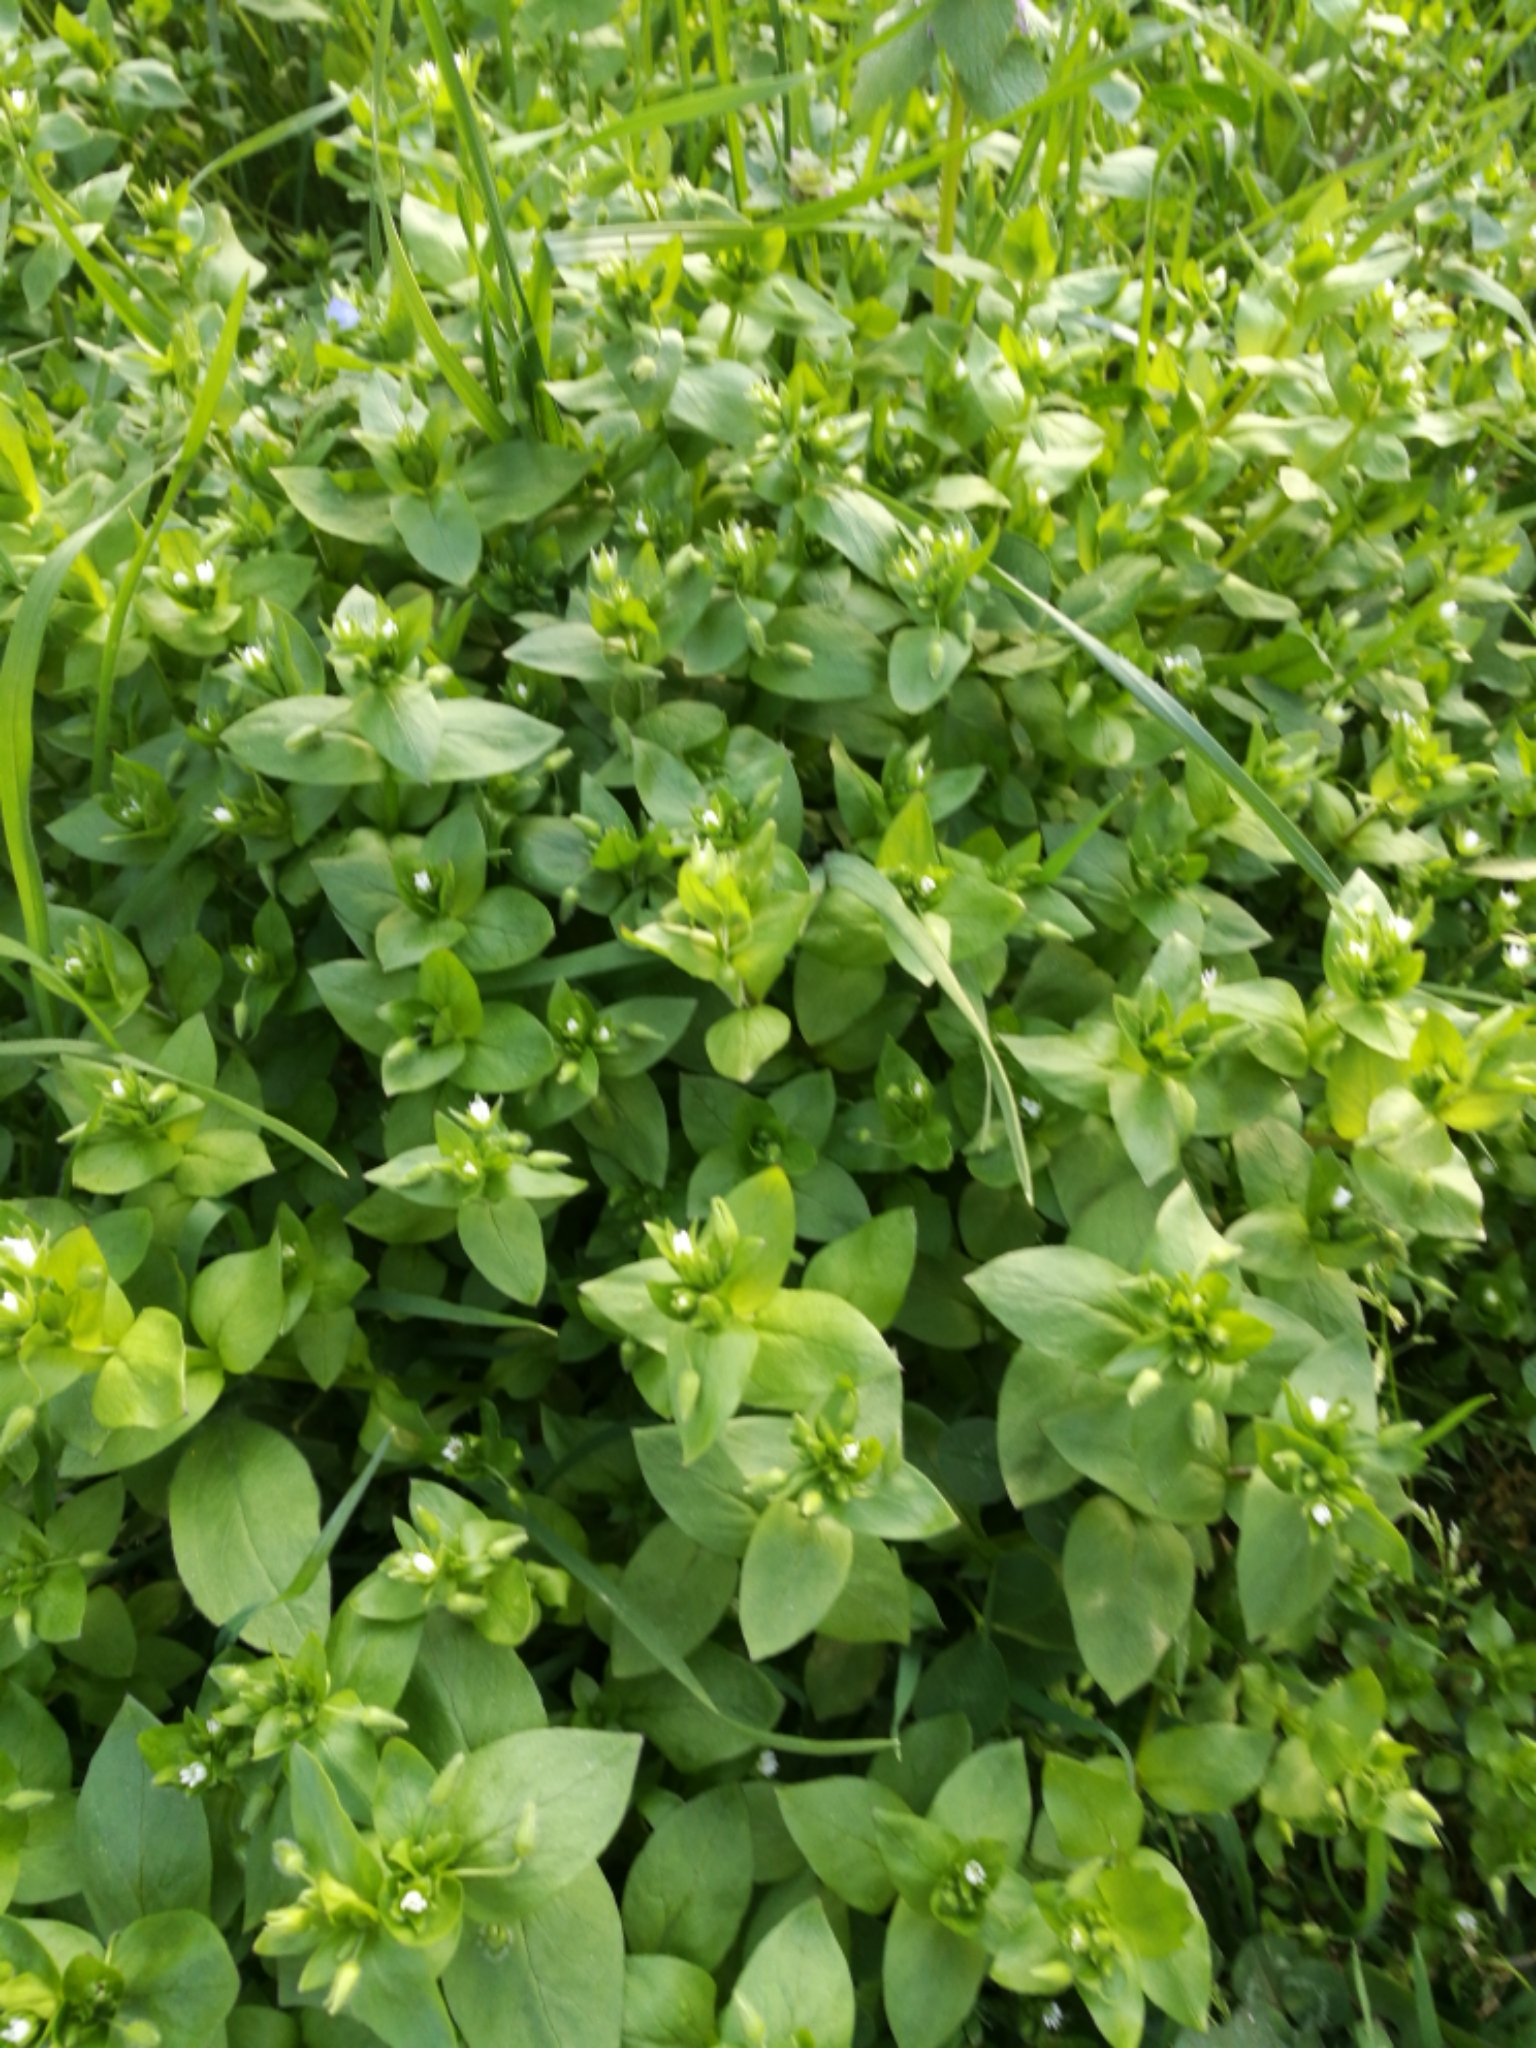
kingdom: Plantae
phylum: Tracheophyta
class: Magnoliopsida
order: Caryophyllales
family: Caryophyllaceae
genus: Stellaria
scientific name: Stellaria media
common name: Common chickweed
